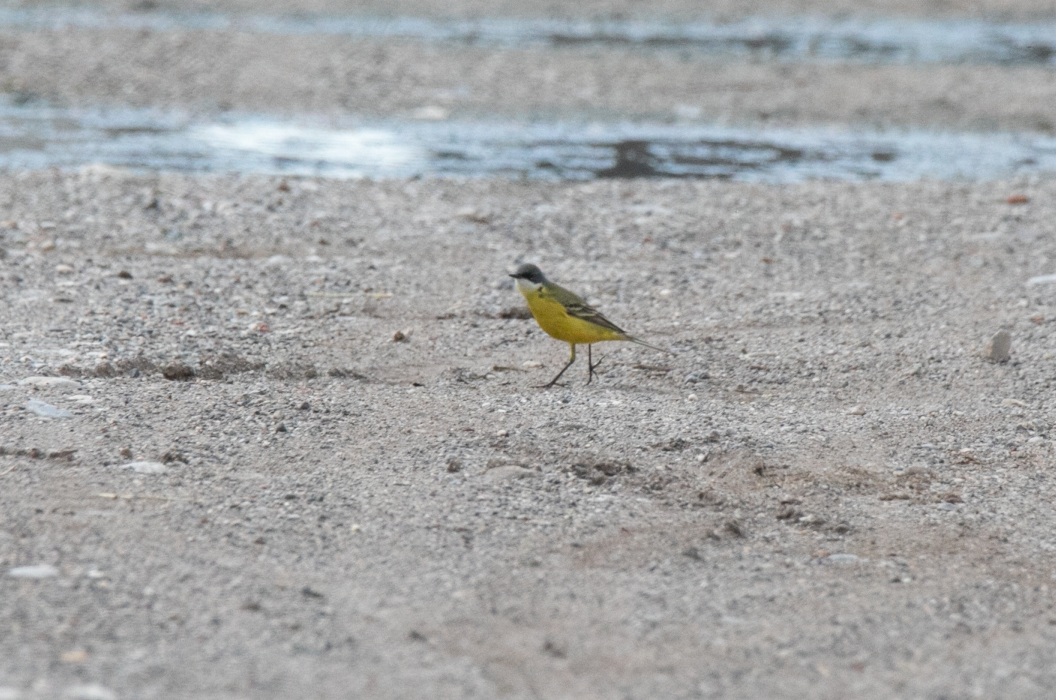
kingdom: Animalia
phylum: Chordata
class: Aves
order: Passeriformes
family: Motacillidae
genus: Motacilla
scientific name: Motacilla flava
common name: Western yellow wagtail
